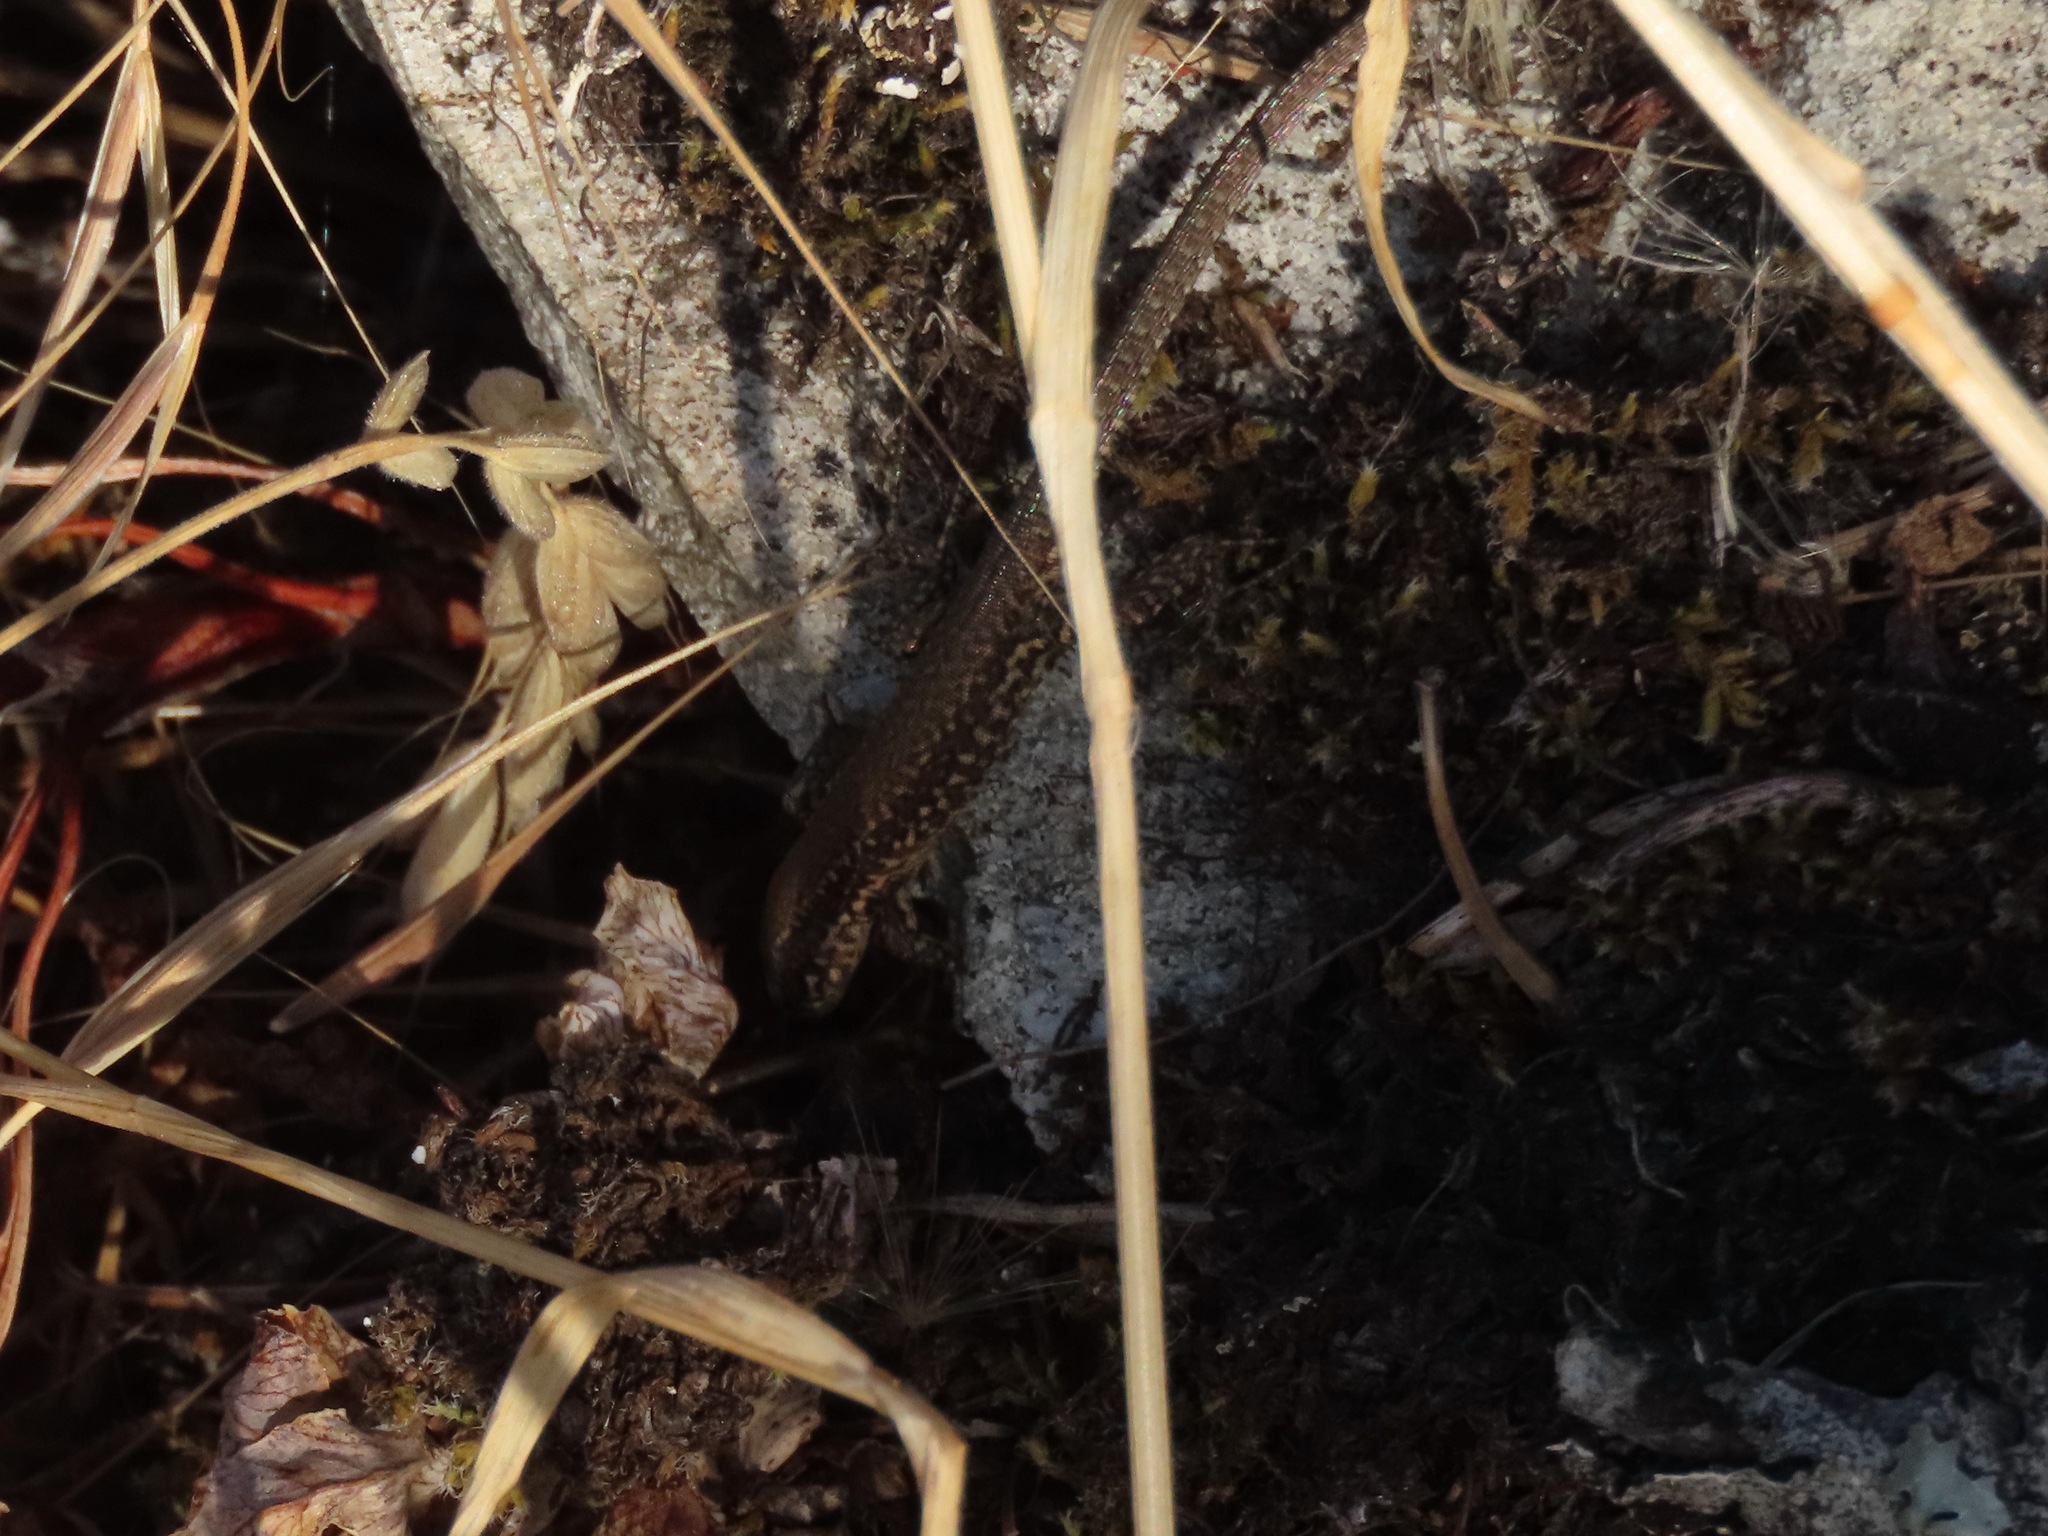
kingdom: Animalia
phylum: Chordata
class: Squamata
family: Lacertidae
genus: Podarcis
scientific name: Podarcis muralis
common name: Common wall lizard
